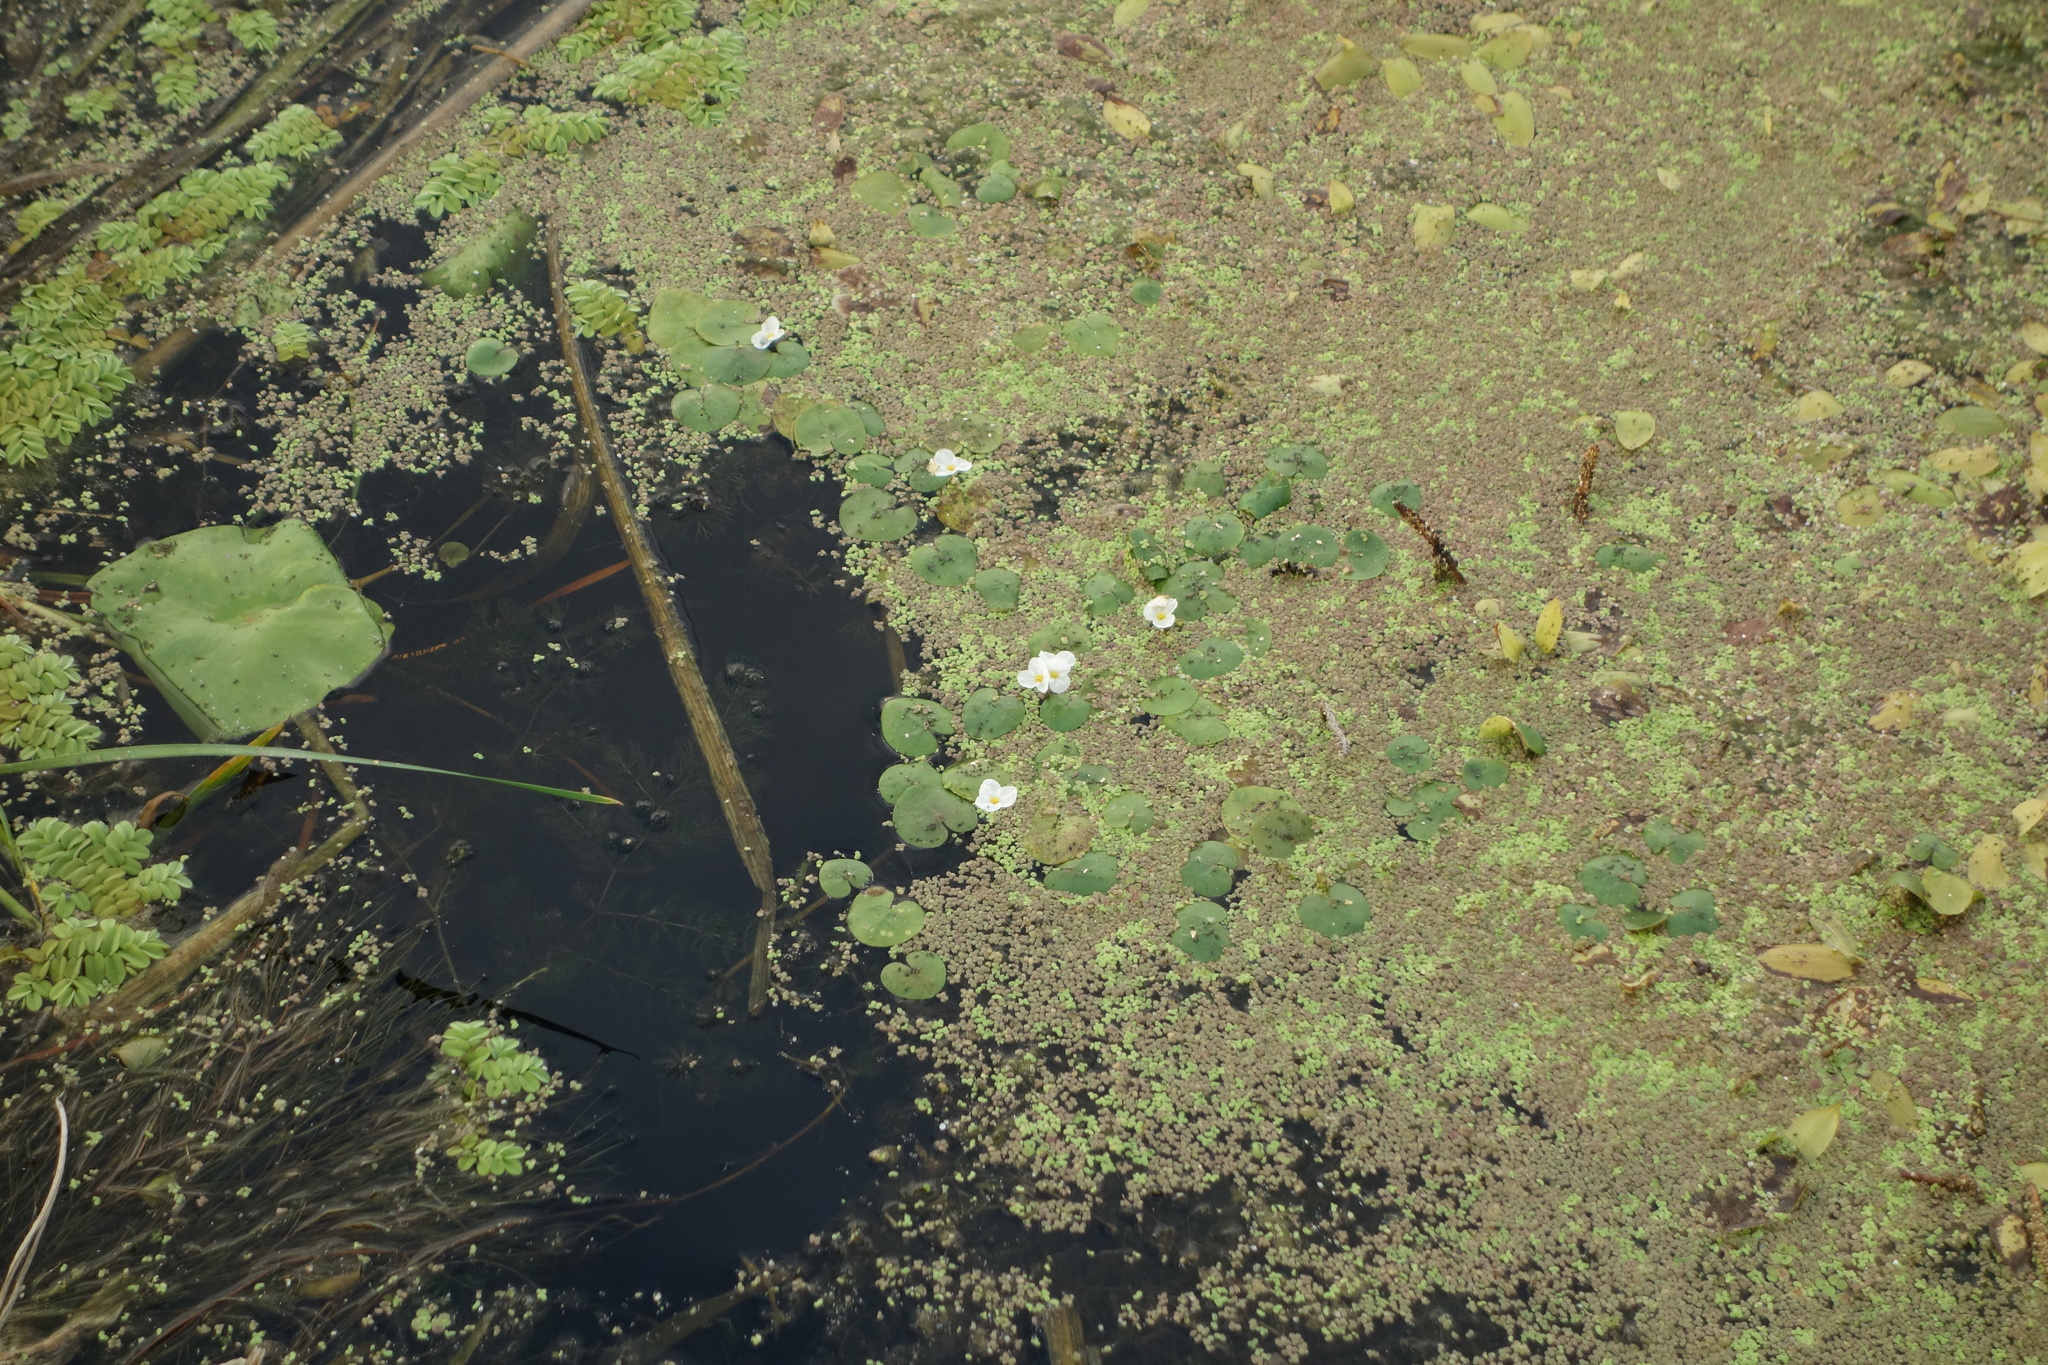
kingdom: Plantae
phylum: Tracheophyta
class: Liliopsida
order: Alismatales
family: Hydrocharitaceae
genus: Hydrocharis
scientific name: Hydrocharis morsus-ranae
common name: Frogbit
